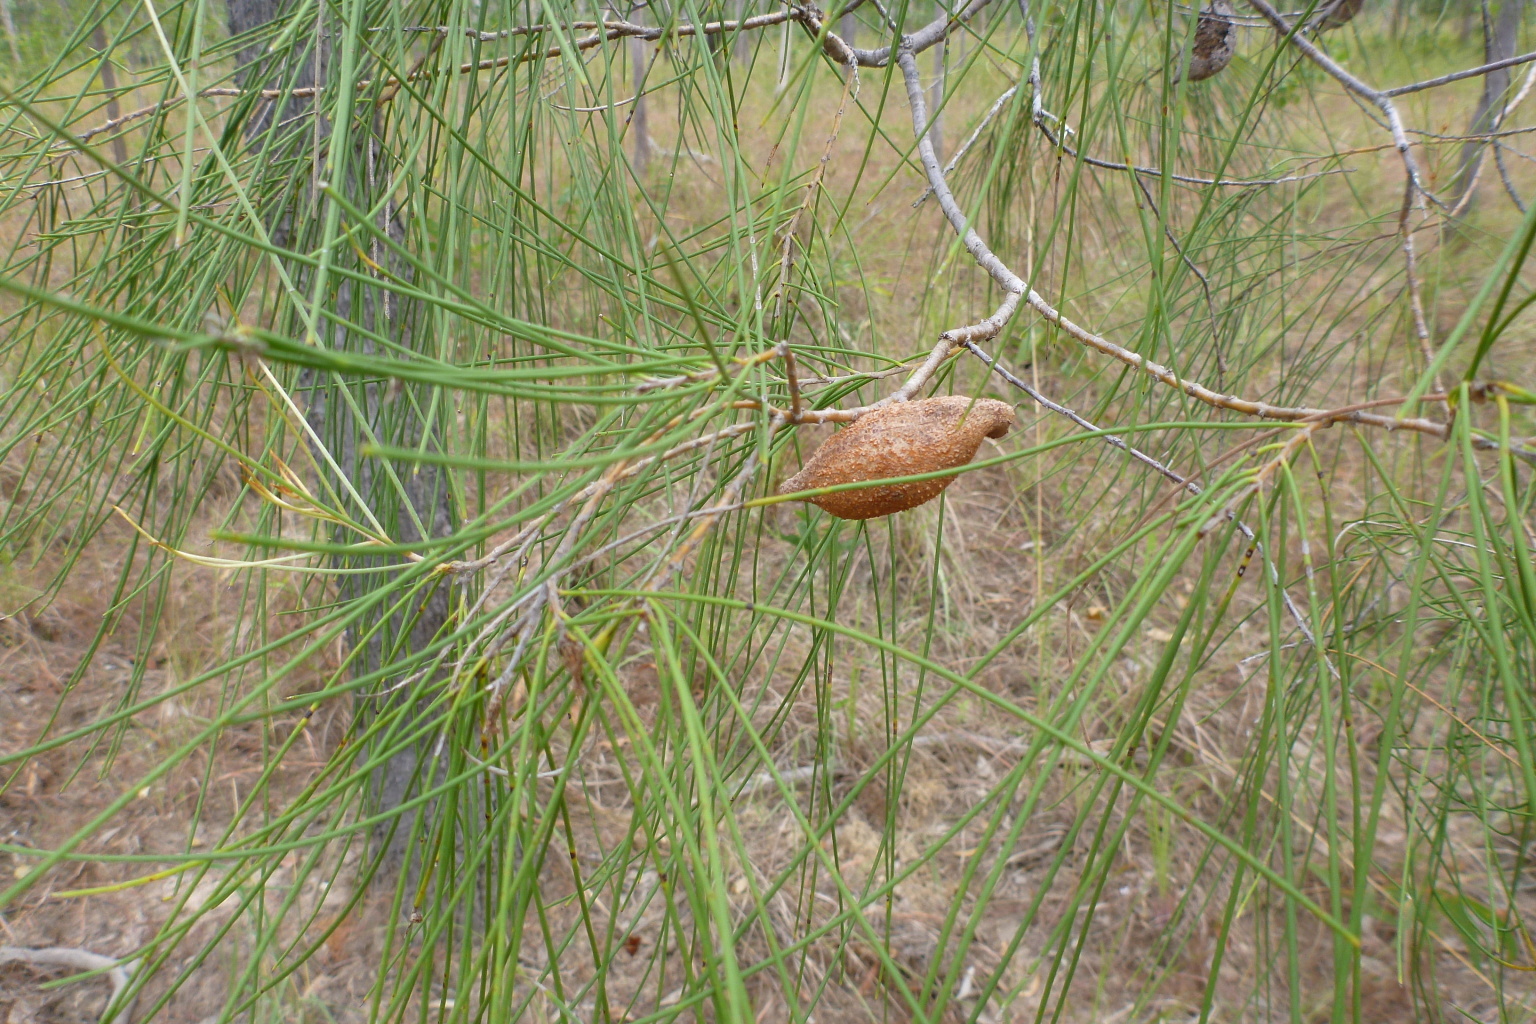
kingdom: Plantae
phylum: Tracheophyta
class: Magnoliopsida
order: Proteales
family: Proteaceae
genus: Hakea
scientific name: Hakea persiehana
